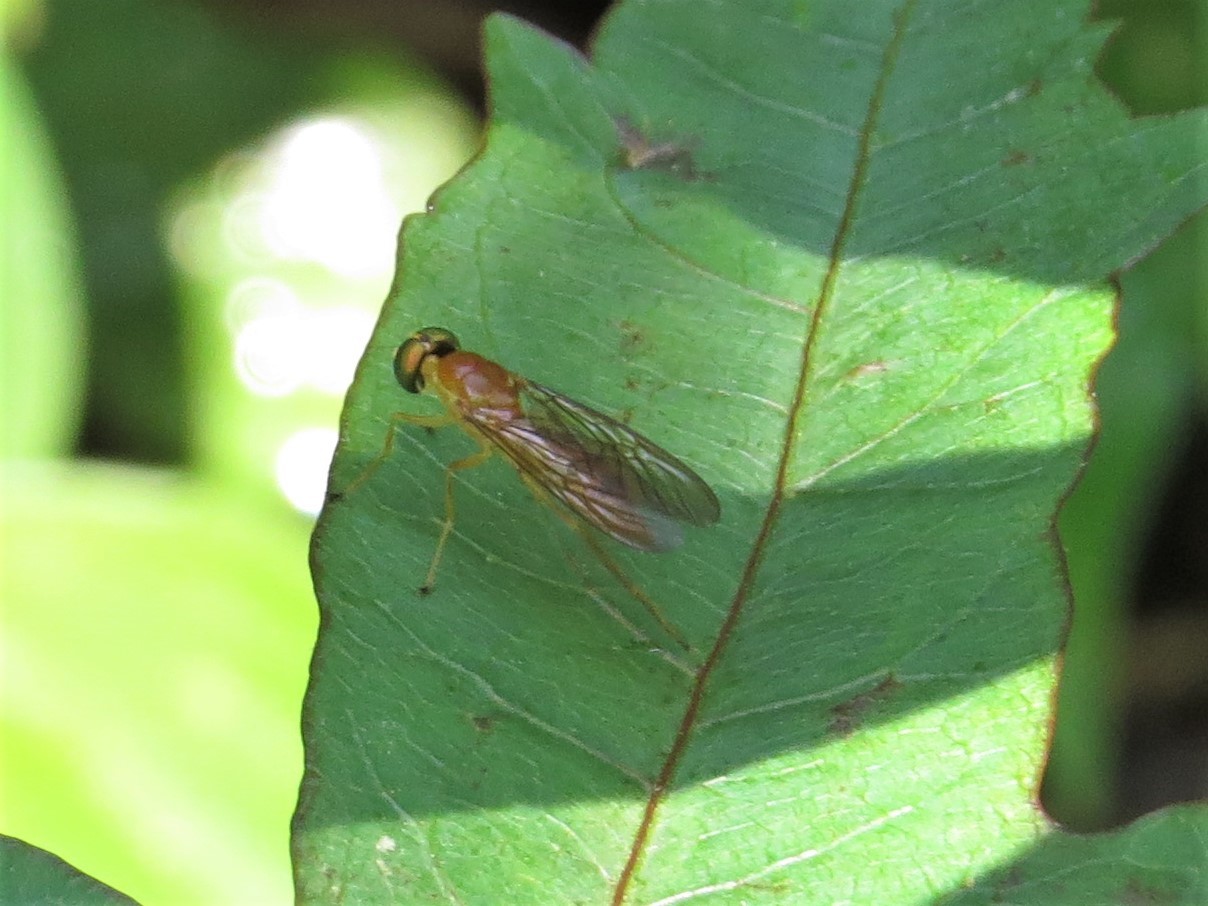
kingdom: Animalia
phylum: Arthropoda
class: Insecta
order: Diptera
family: Stratiomyidae
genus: Ptecticus
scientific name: Ptecticus trivittatus
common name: Compost fly
